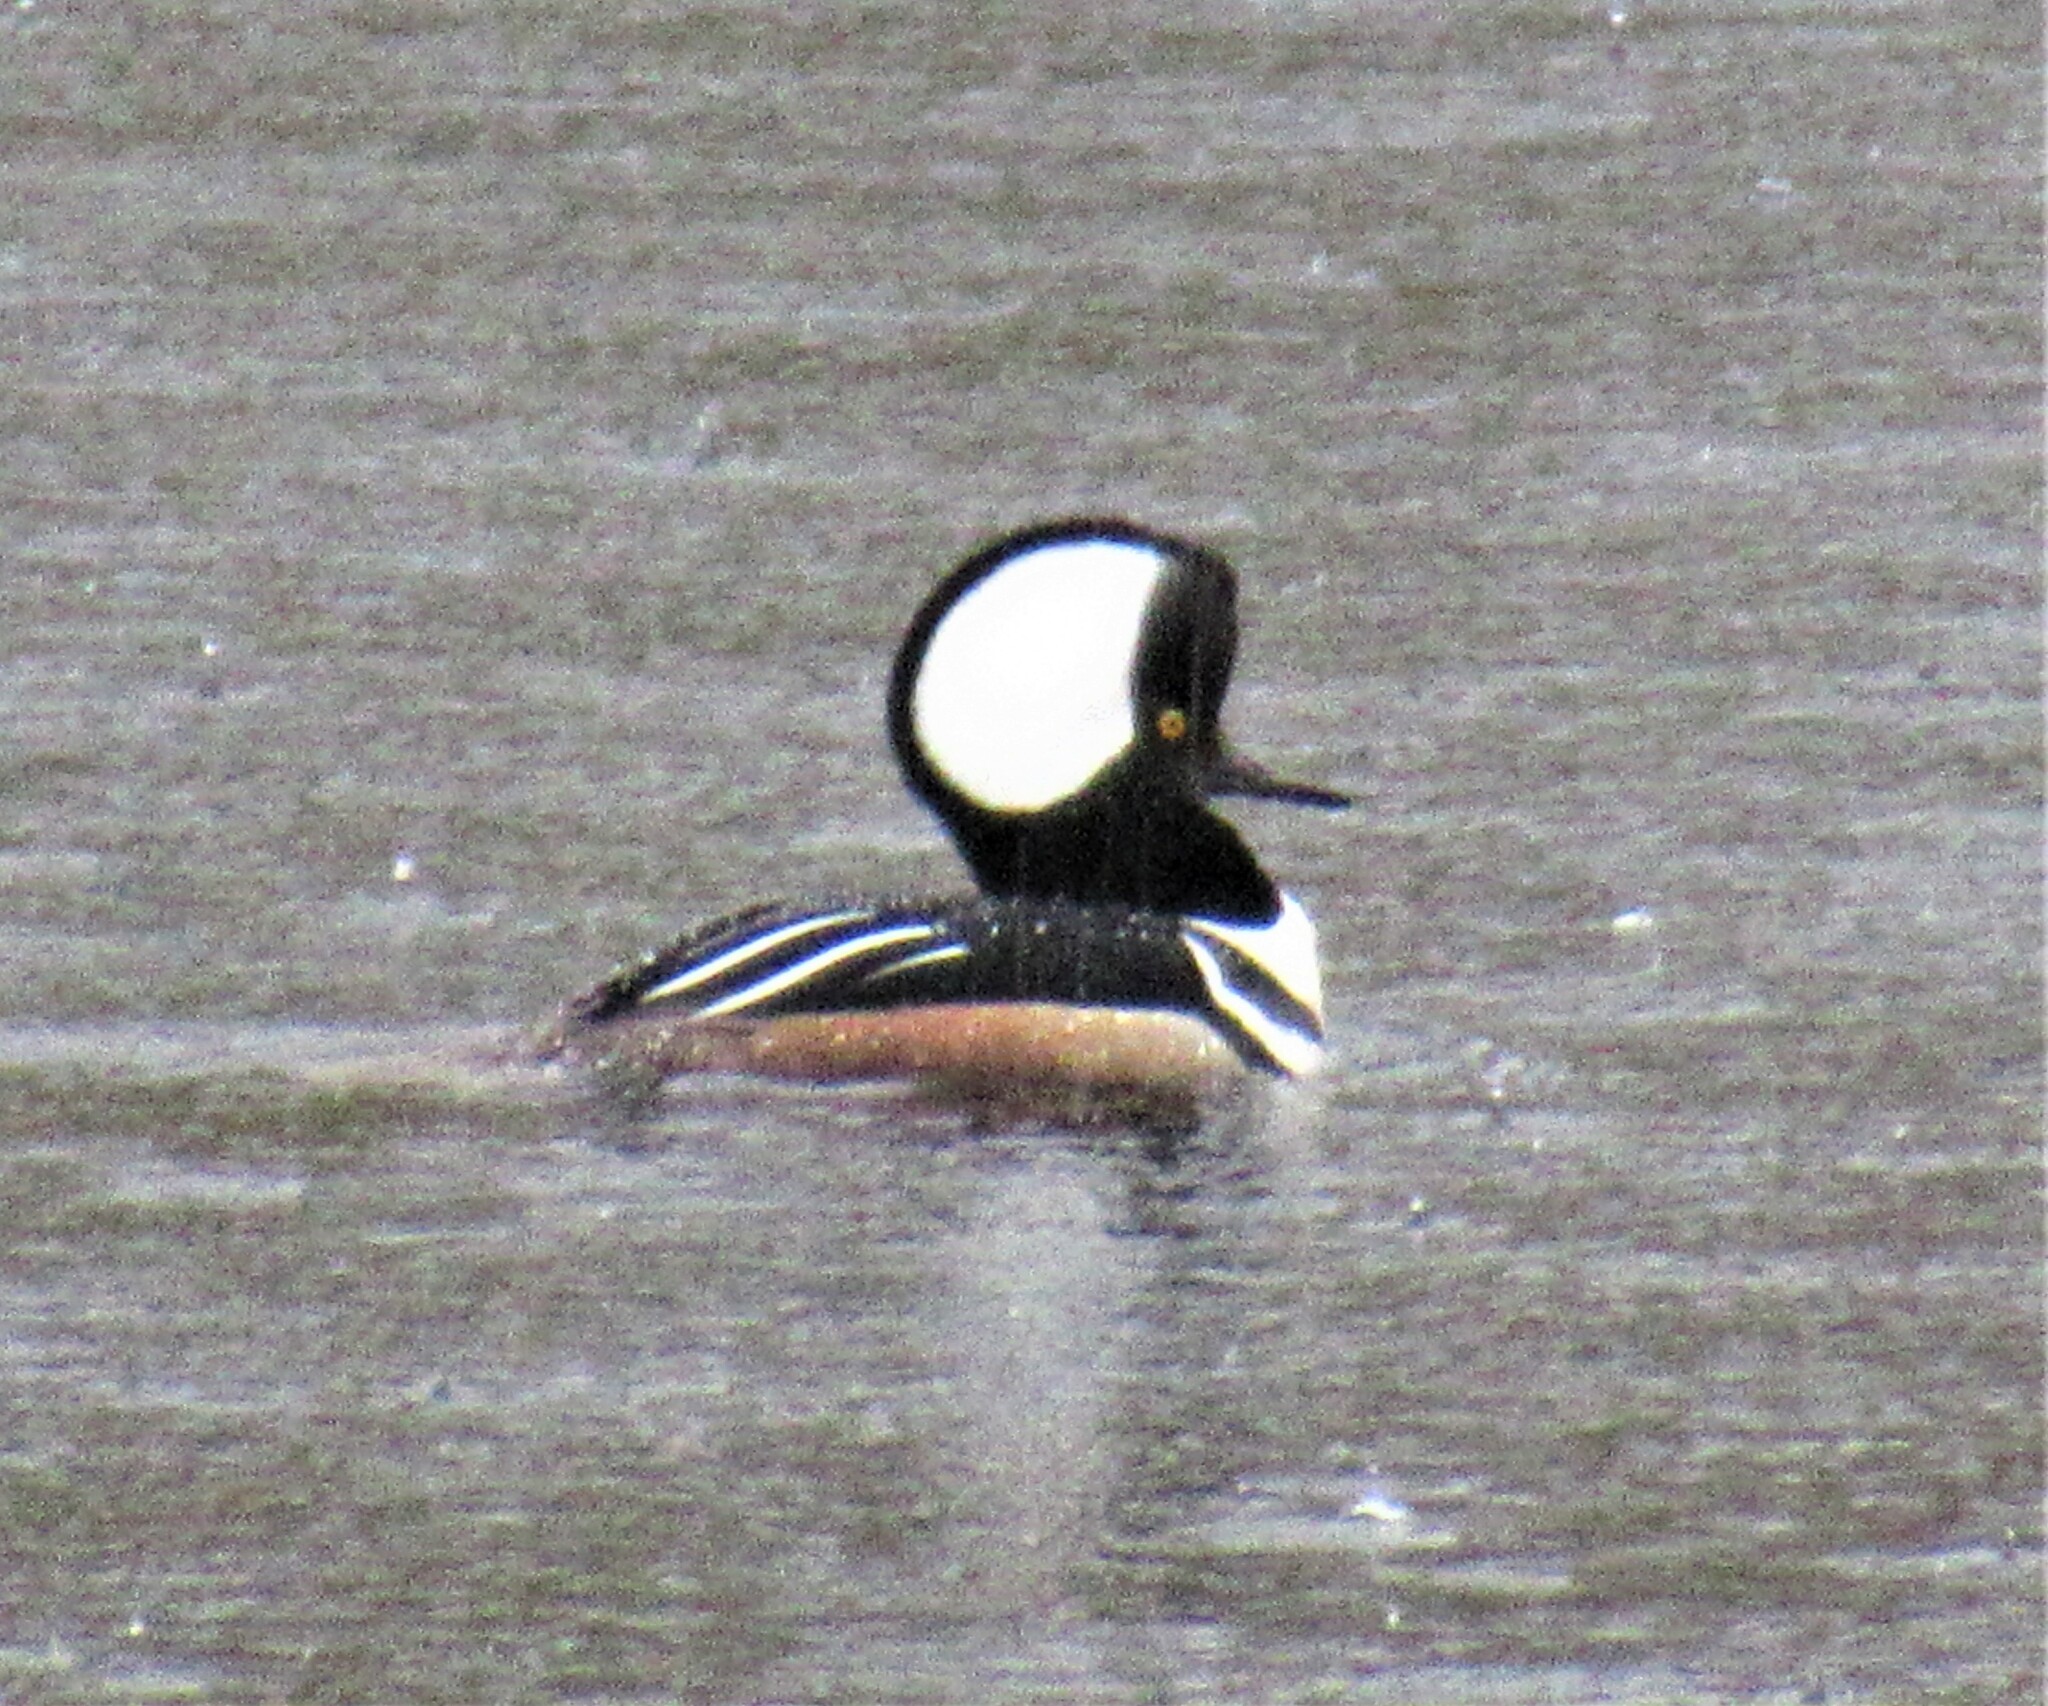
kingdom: Animalia
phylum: Chordata
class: Aves
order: Anseriformes
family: Anatidae
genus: Lophodytes
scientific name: Lophodytes cucullatus
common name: Hooded merganser
